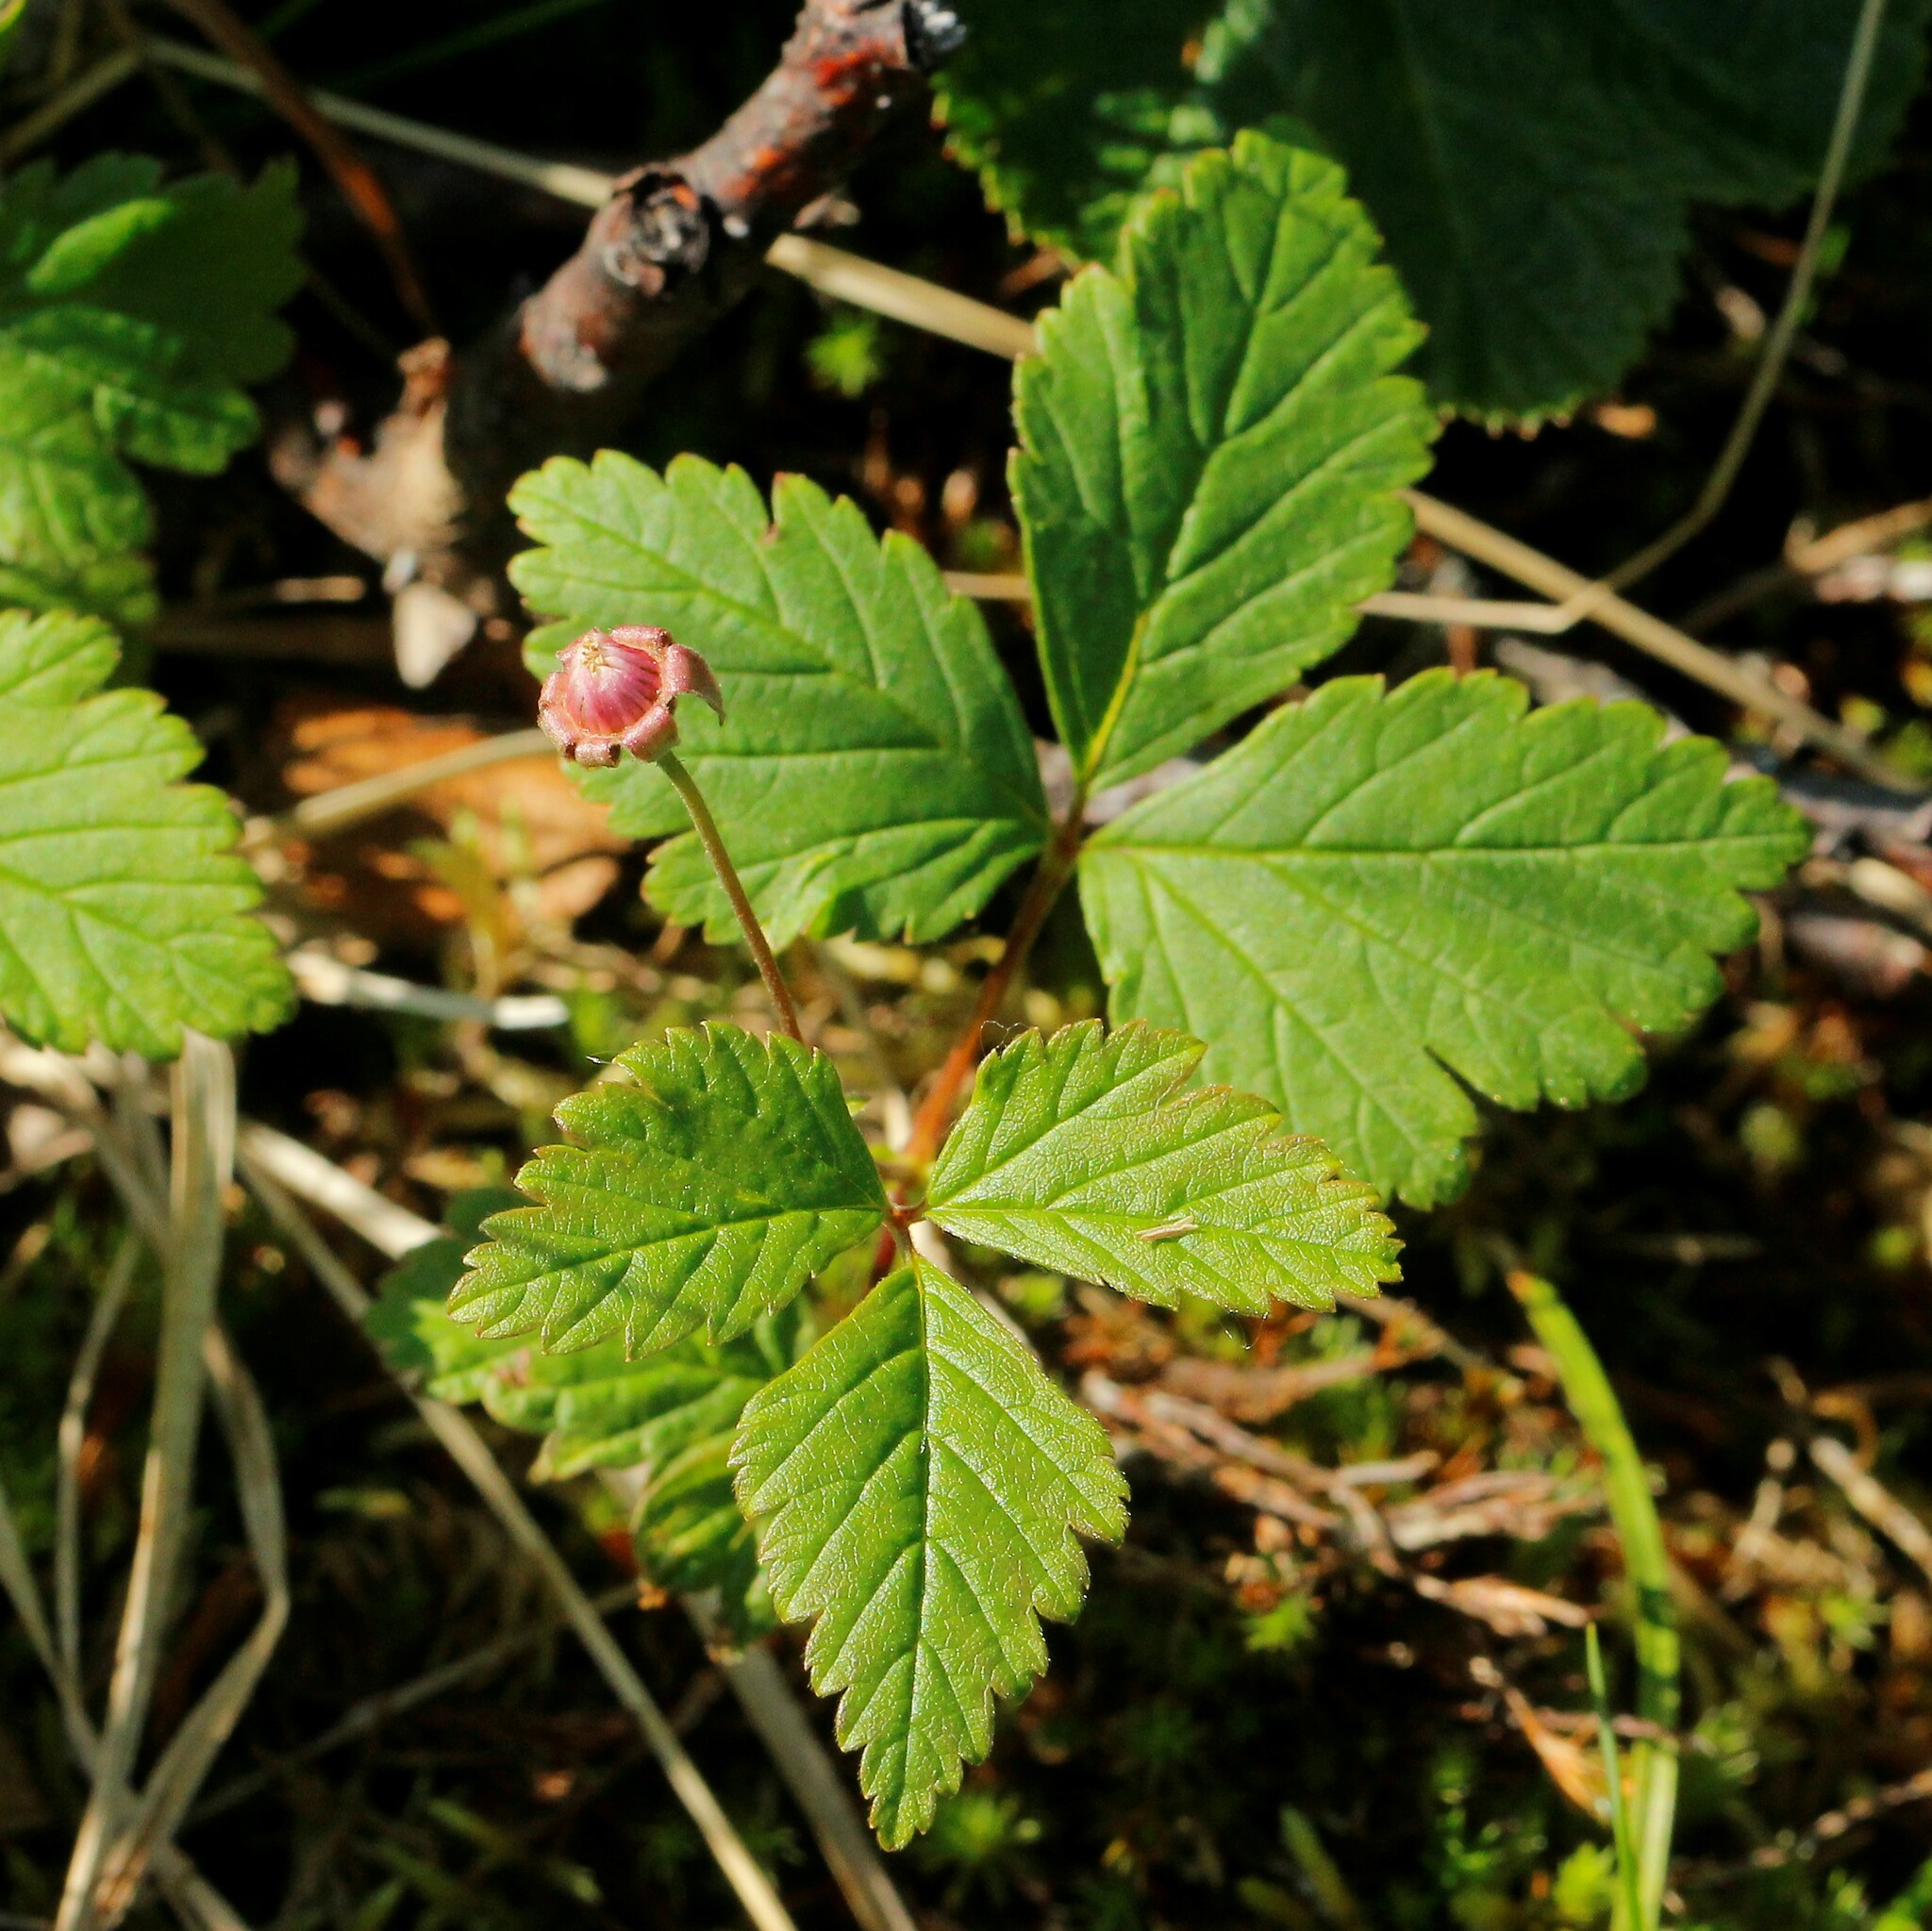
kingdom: Plantae
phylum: Tracheophyta
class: Magnoliopsida
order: Rosales
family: Rosaceae
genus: Rubus
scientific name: Rubus arcticus
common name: Arctic bramble
